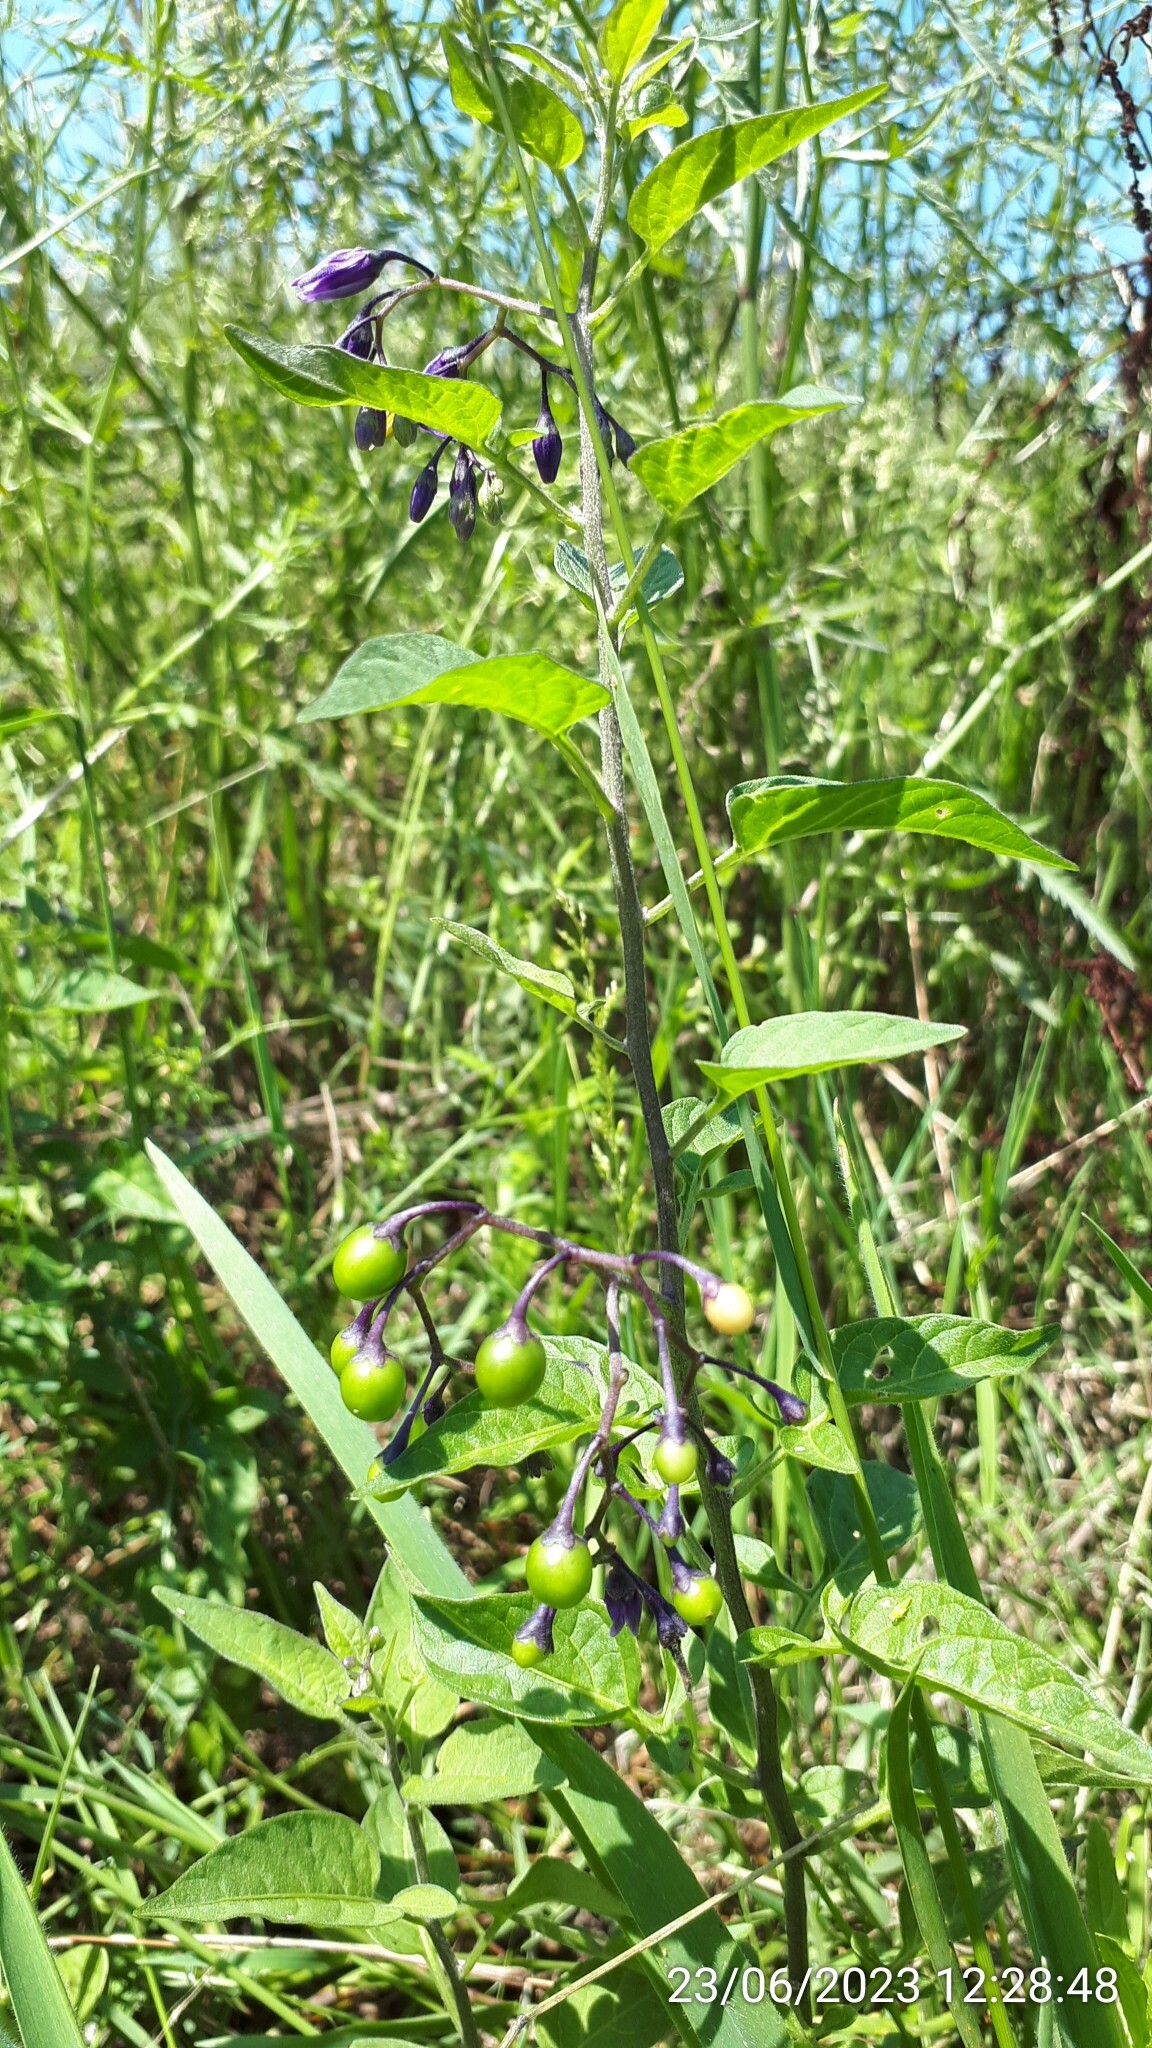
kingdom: Plantae
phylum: Tracheophyta
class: Magnoliopsida
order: Solanales
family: Solanaceae
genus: Solanum
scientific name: Solanum dulcamara
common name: Climbing nightshade
